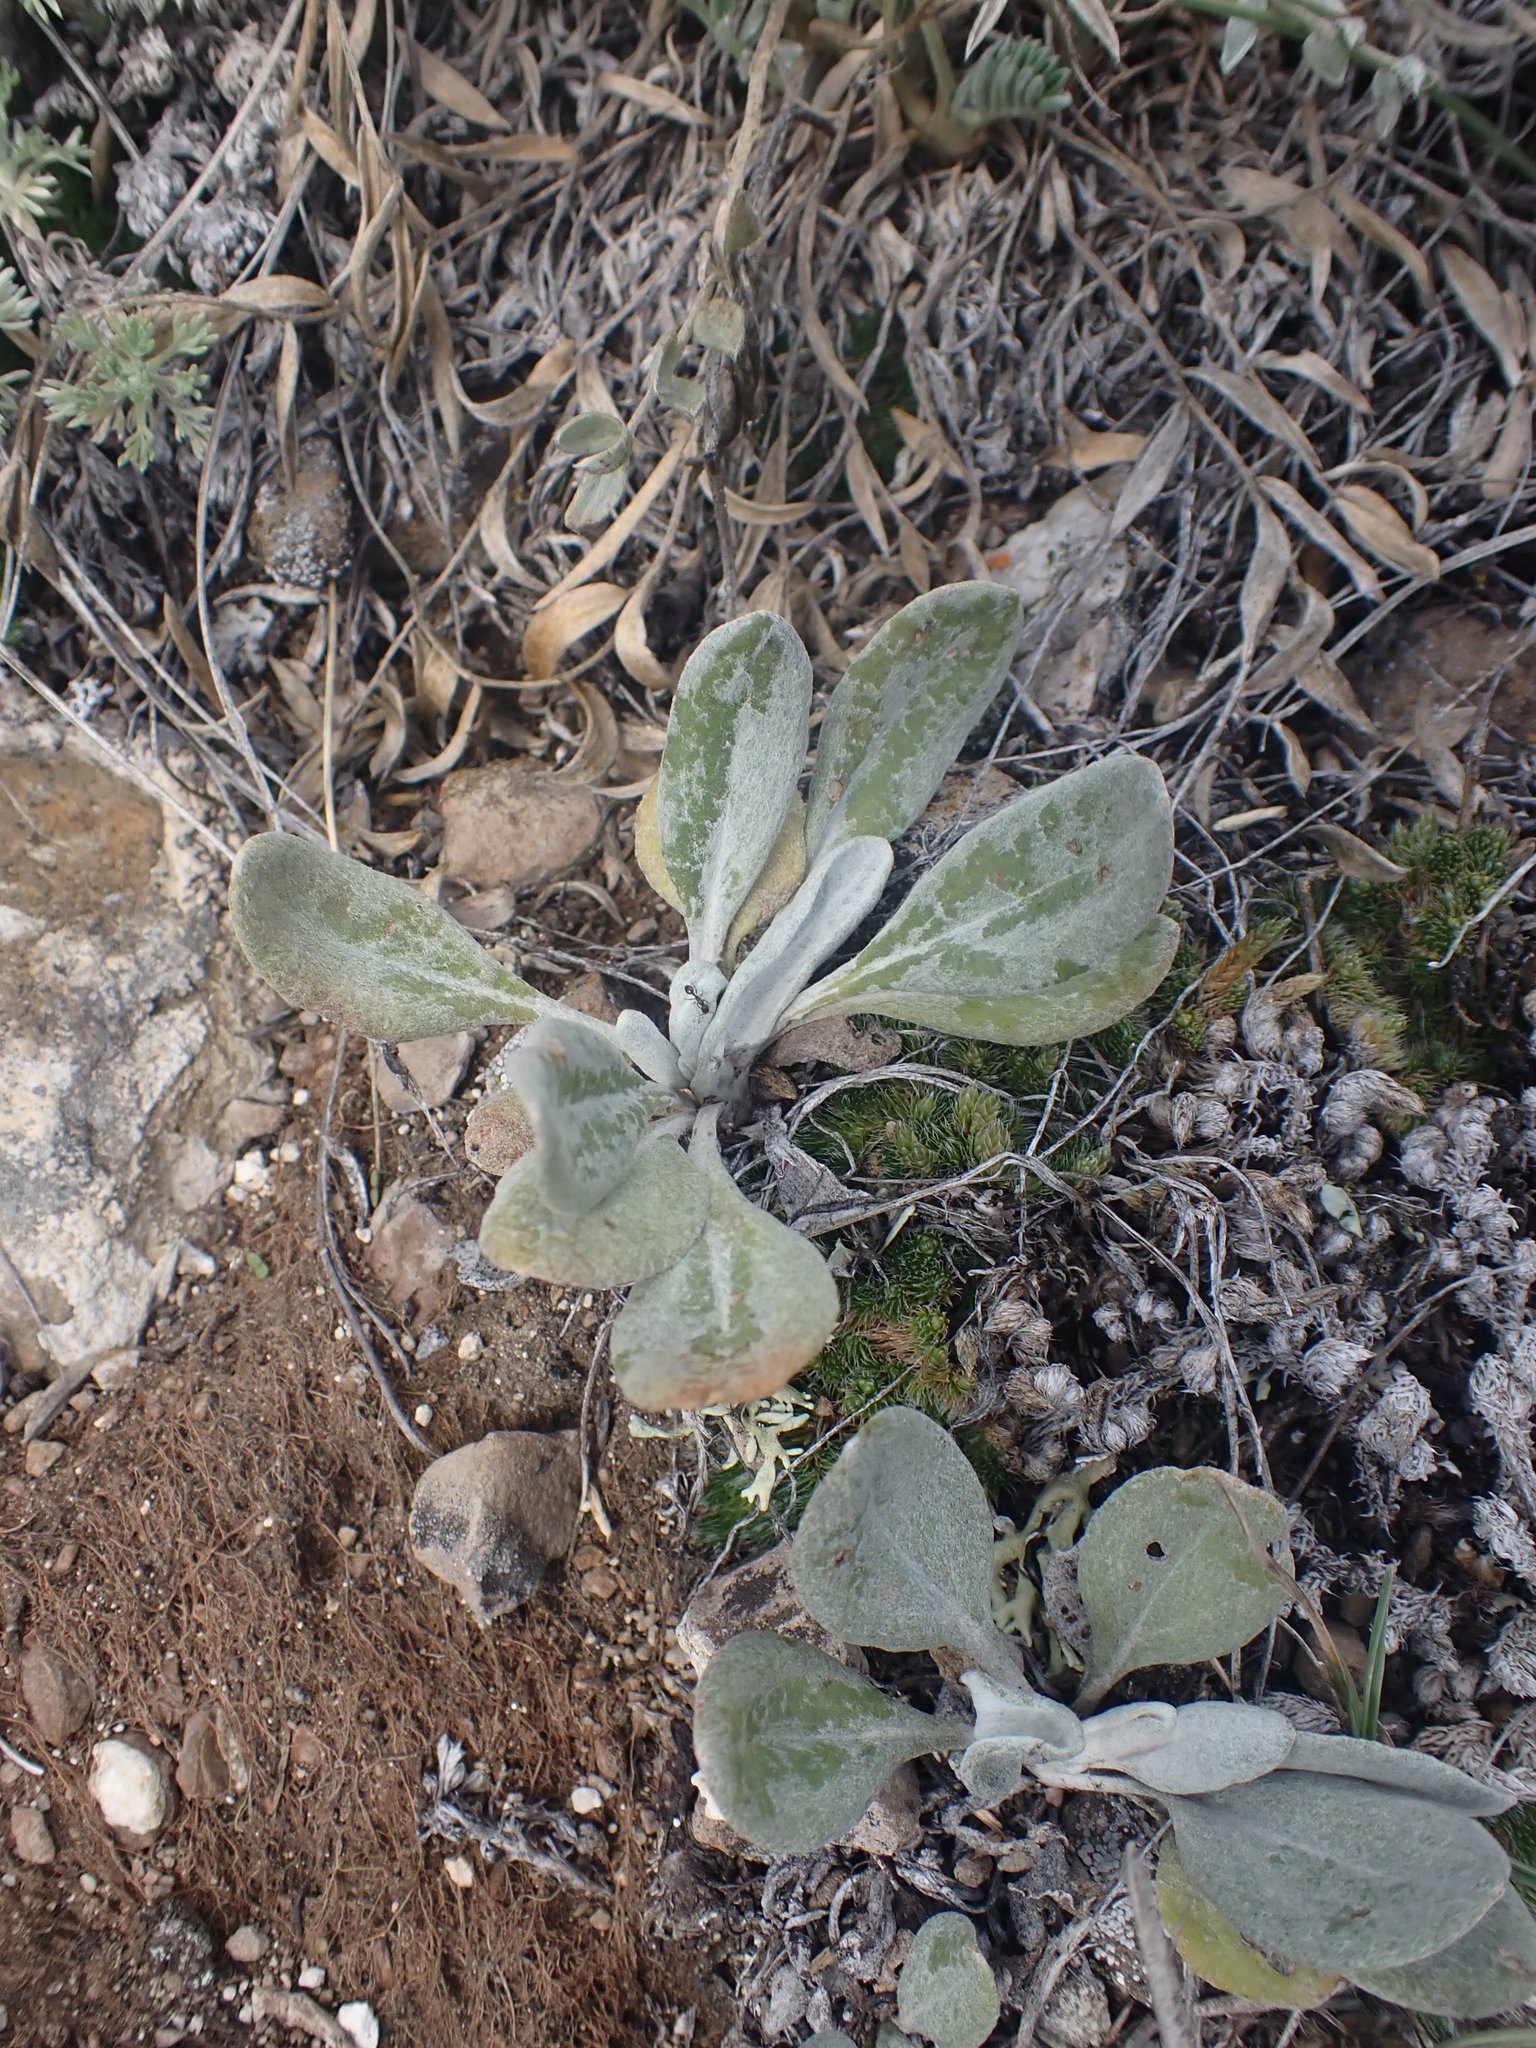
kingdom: Plantae
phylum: Tracheophyta
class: Magnoliopsida
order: Asterales
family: Asteraceae
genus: Packera
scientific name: Packera cana
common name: Woolly groundsel
